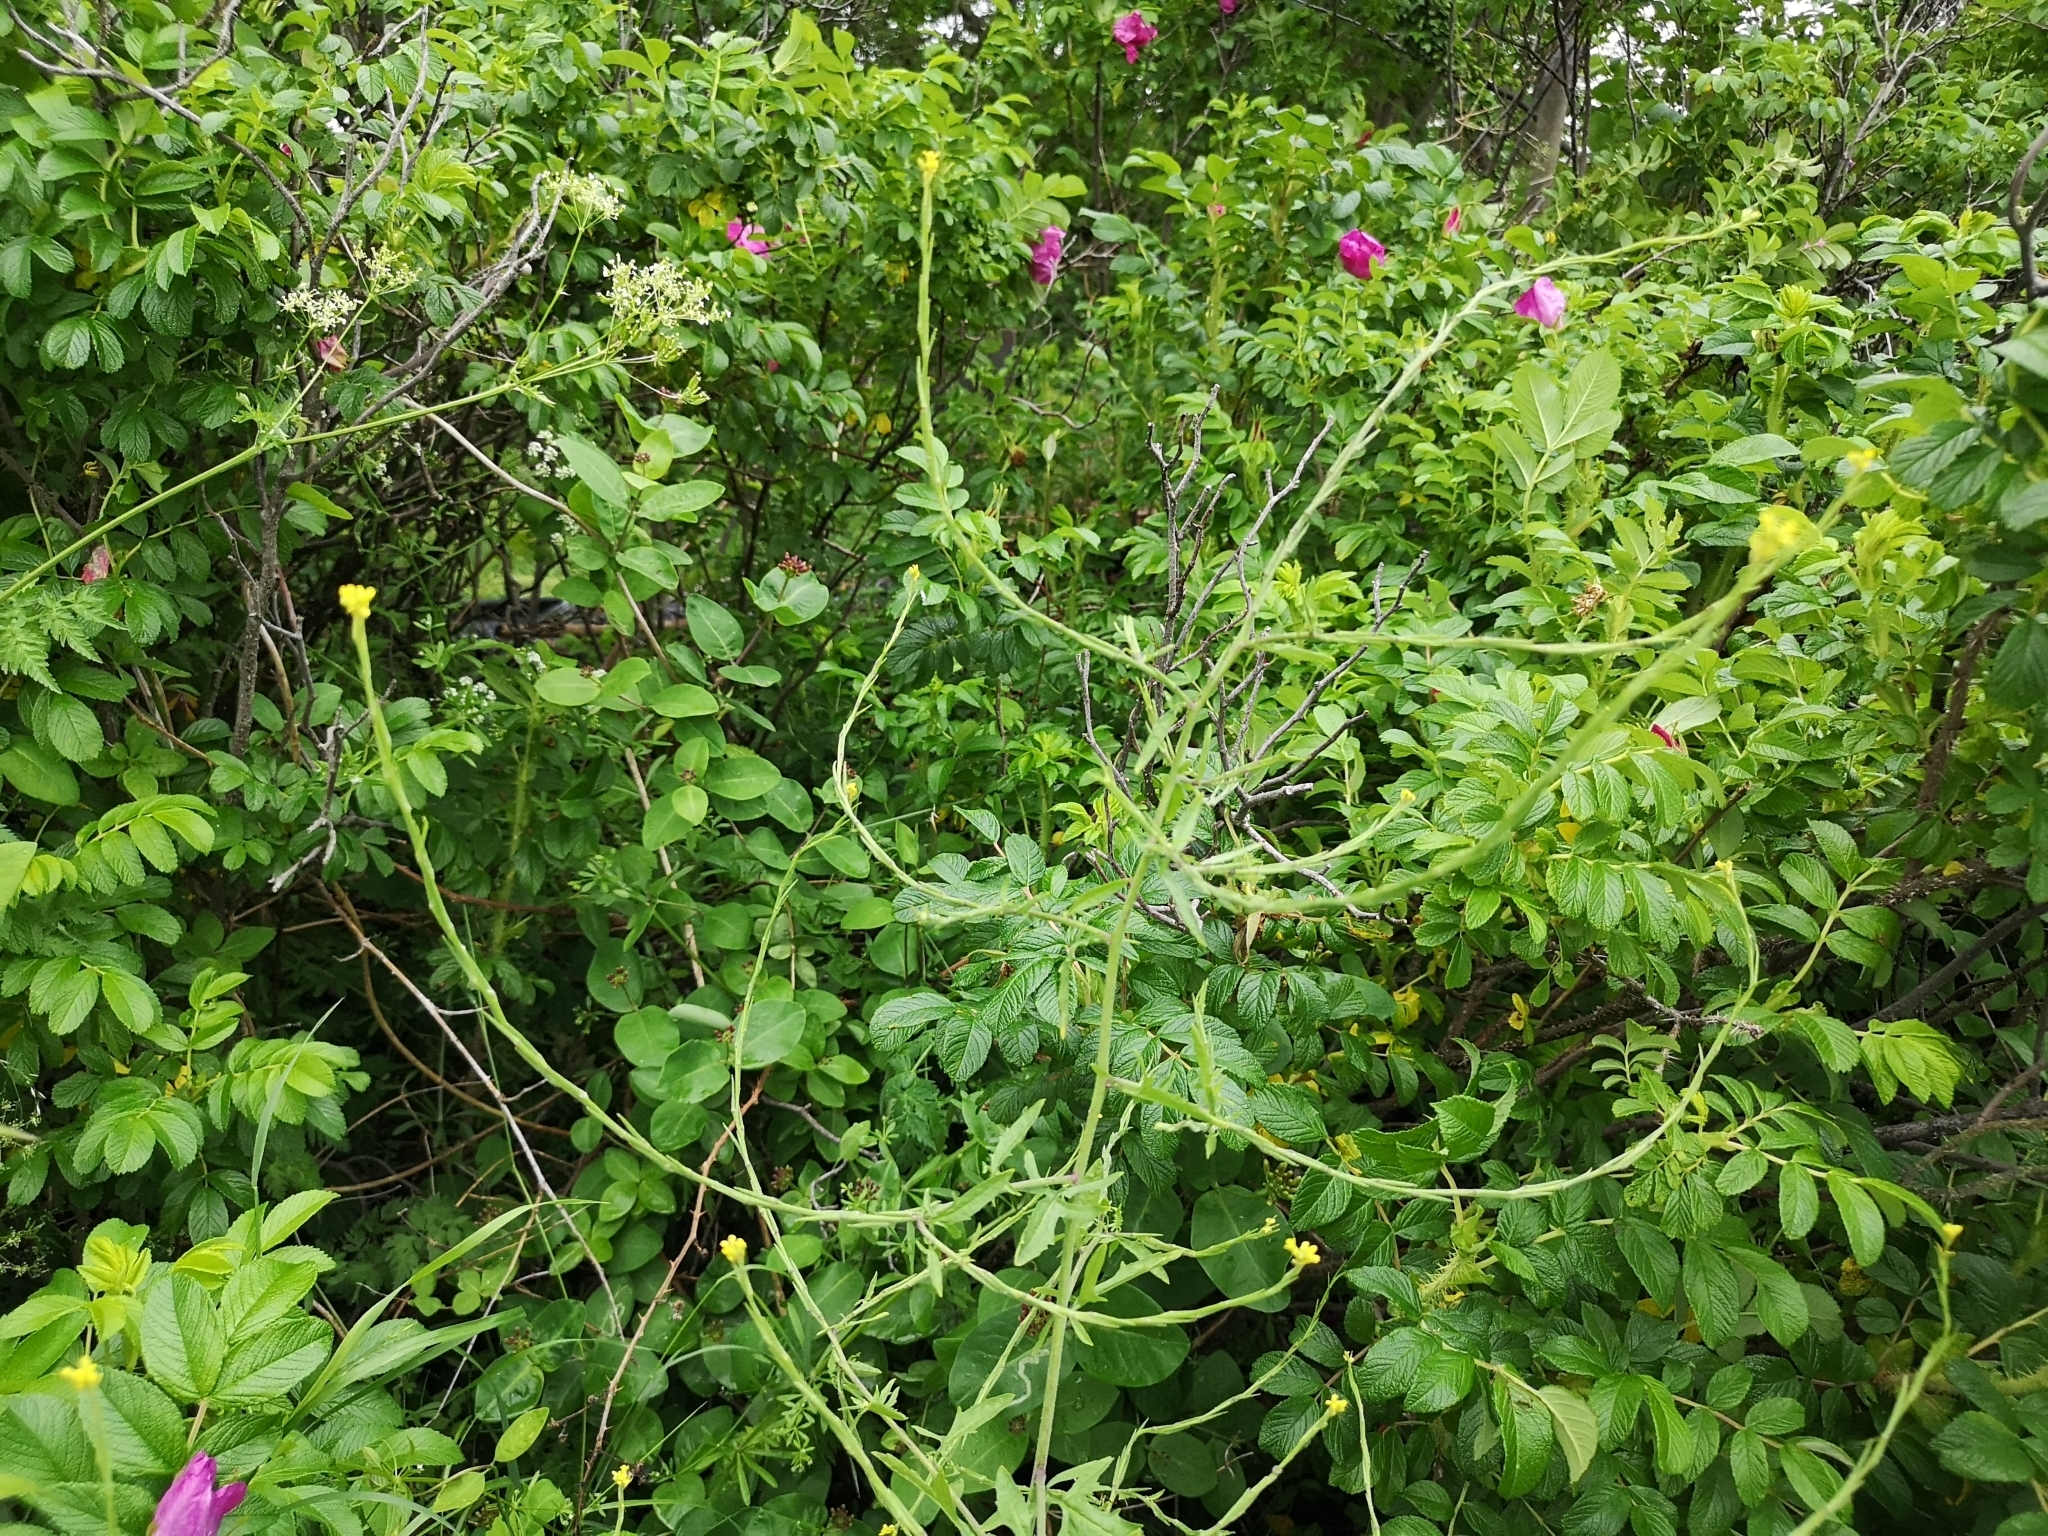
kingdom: Plantae
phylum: Tracheophyta
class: Magnoliopsida
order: Brassicales
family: Brassicaceae
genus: Sisymbrium
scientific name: Sisymbrium officinale
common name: Hedge mustard
